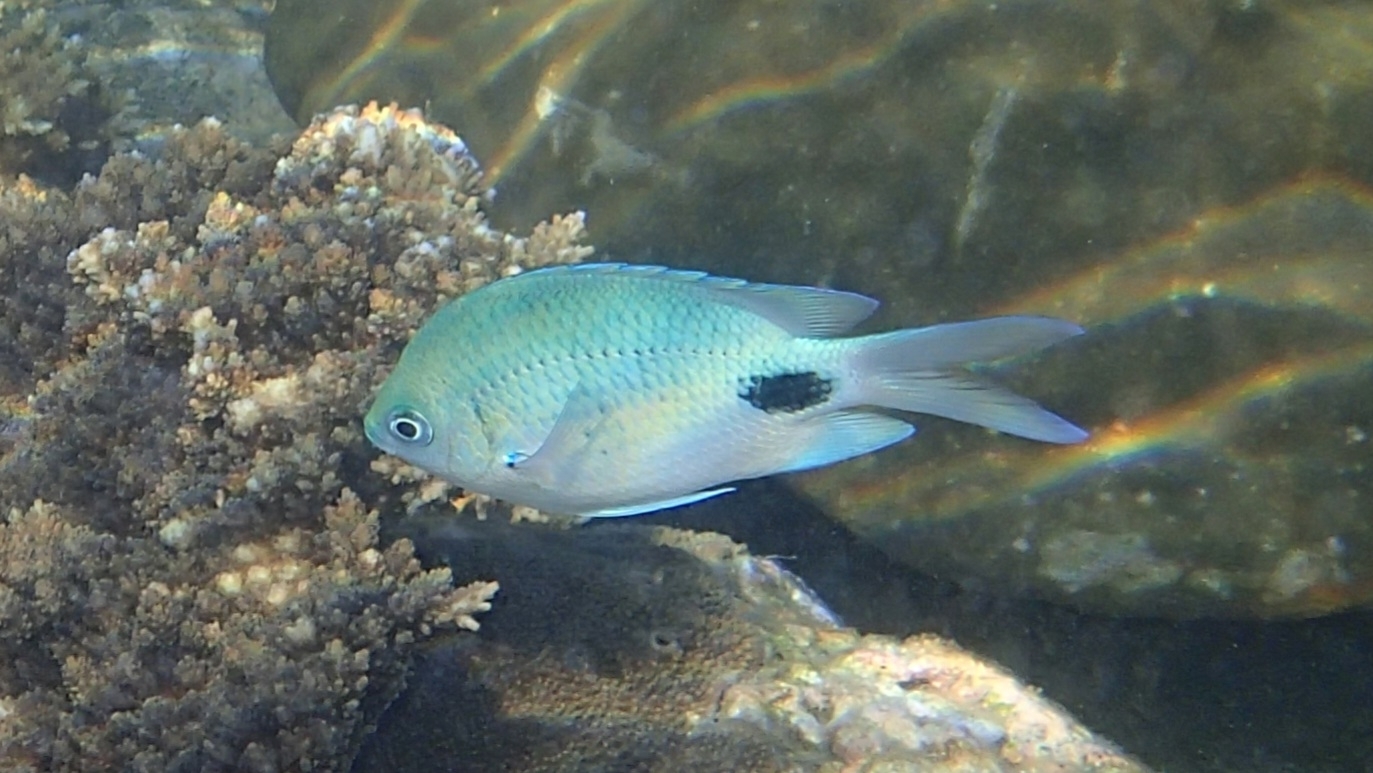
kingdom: Animalia
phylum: Chordata
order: Perciformes
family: Pomacentridae
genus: Abudefduf
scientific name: Abudefduf sparoides
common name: False-eye sergeant
